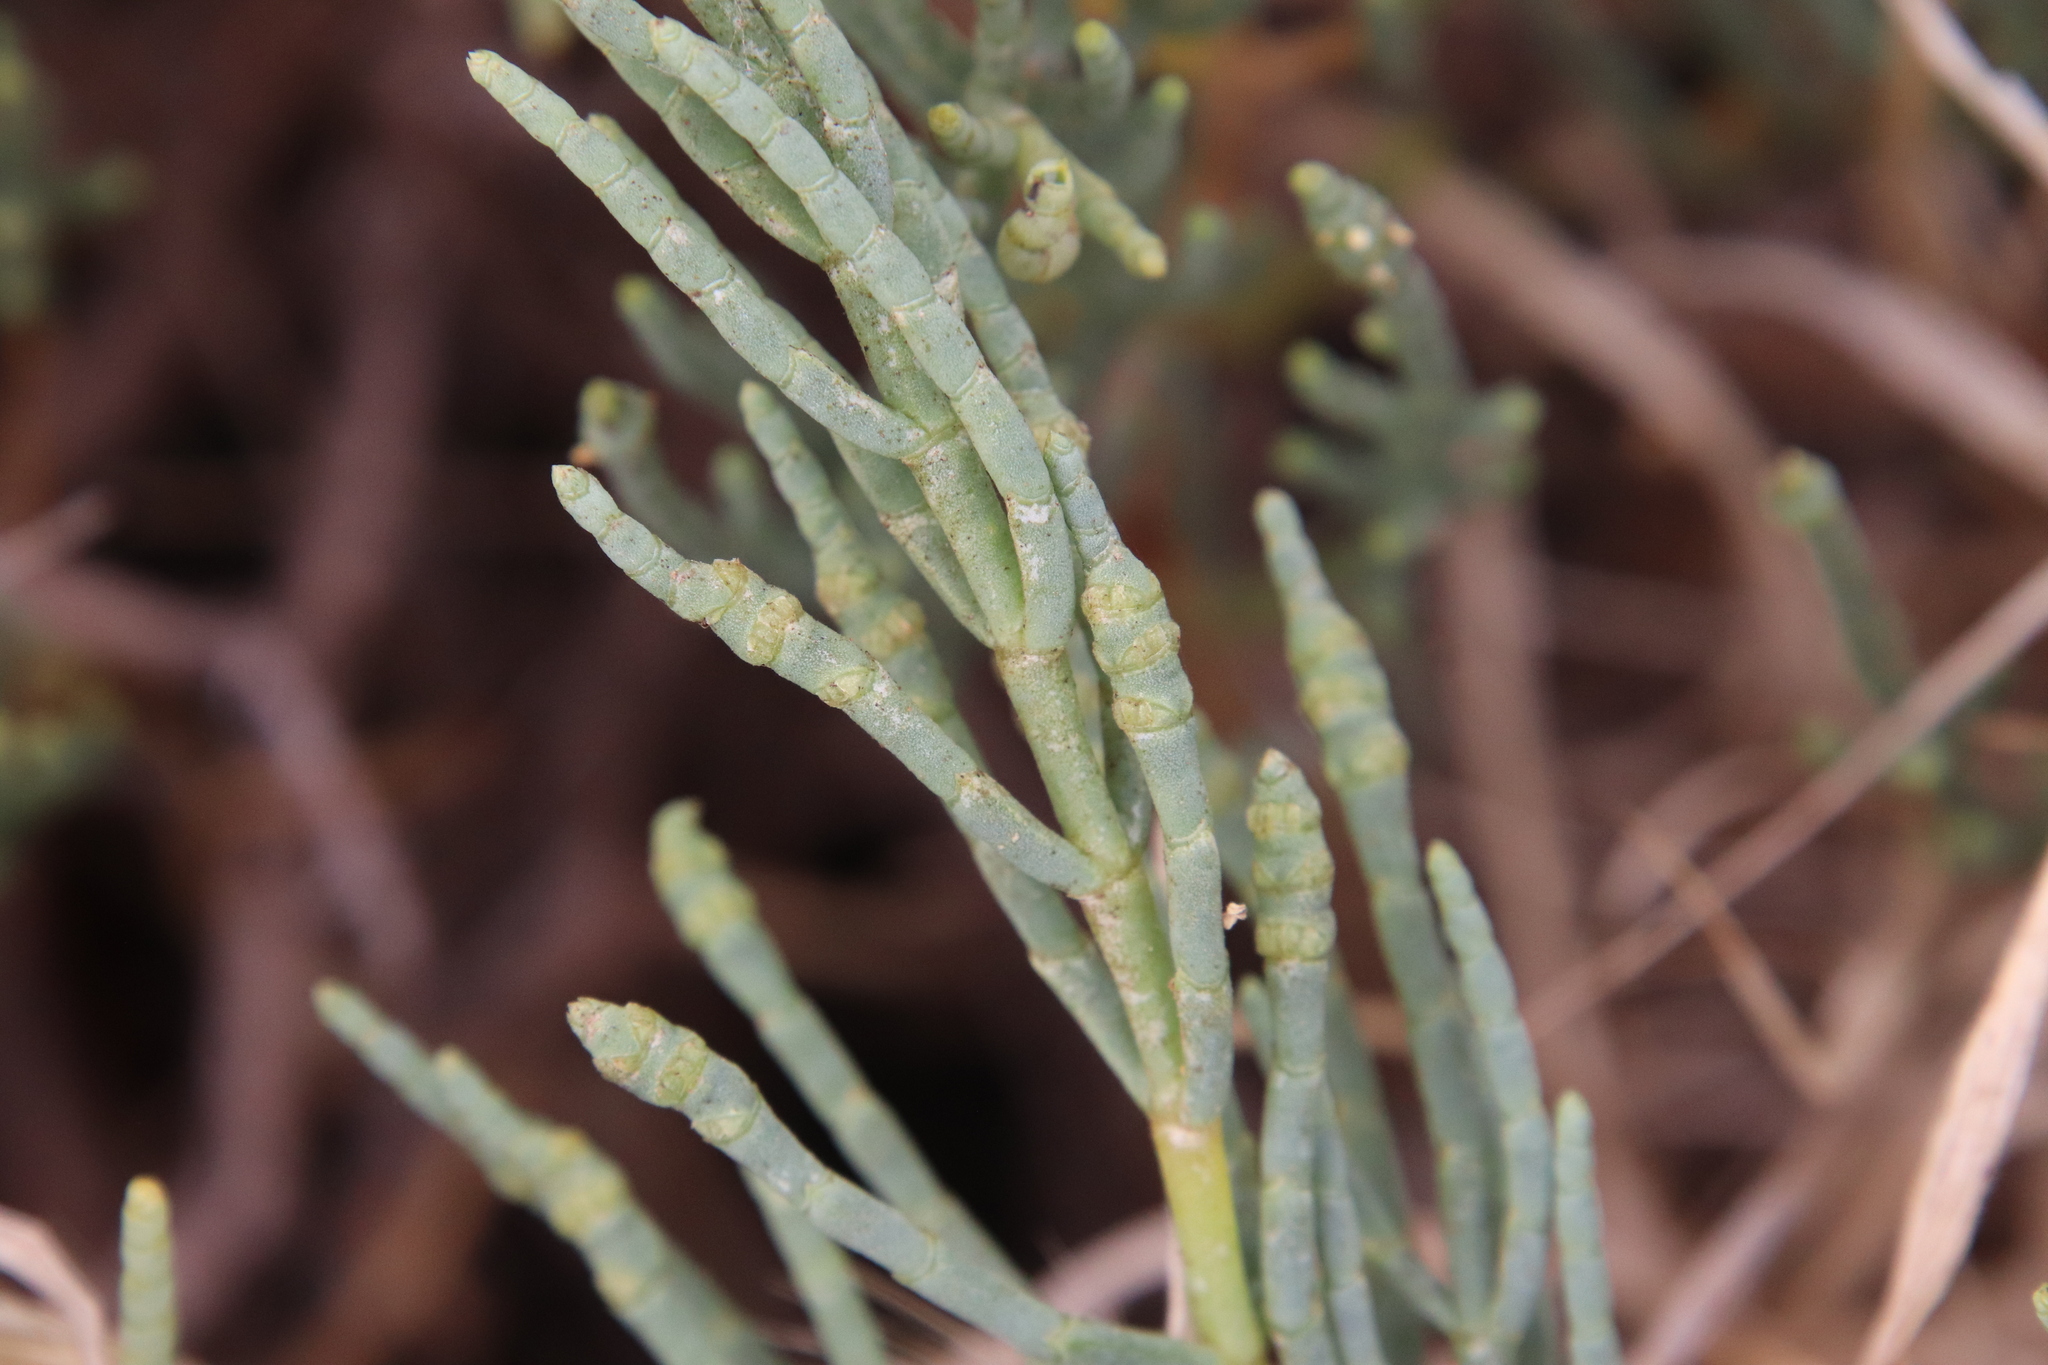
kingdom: Plantae
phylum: Tracheophyta
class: Magnoliopsida
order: Caryophyllales
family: Amaranthaceae
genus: Arthroceras
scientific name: Arthroceras subterminale
